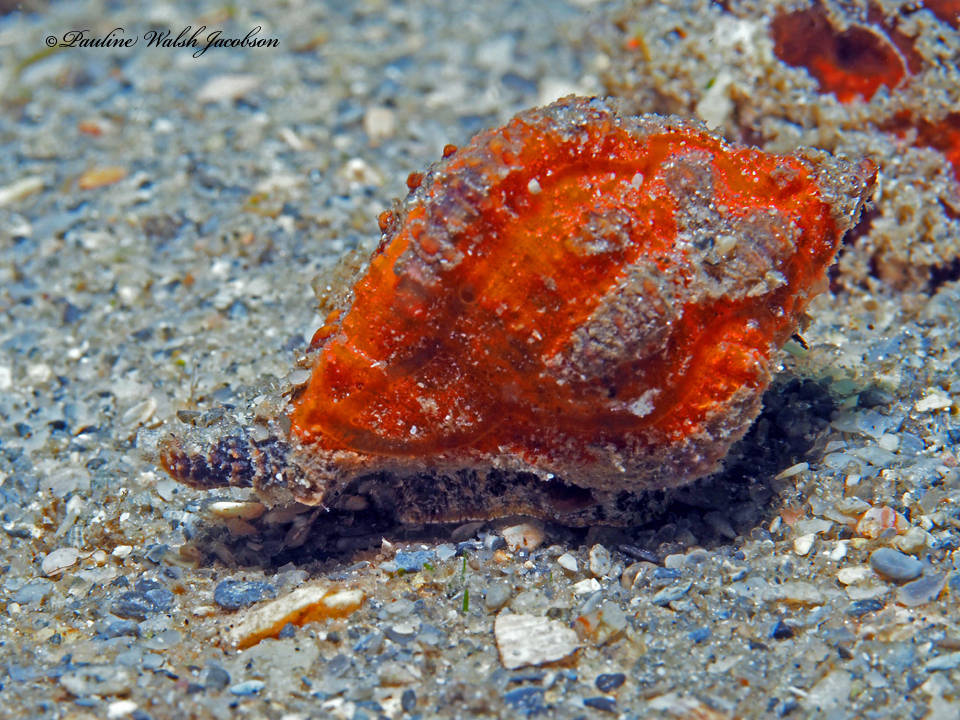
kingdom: Animalia
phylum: Mollusca
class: Gastropoda
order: Neogastropoda
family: Muricidae
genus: Phyllonotus
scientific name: Phyllonotus pomum
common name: Apple murex
